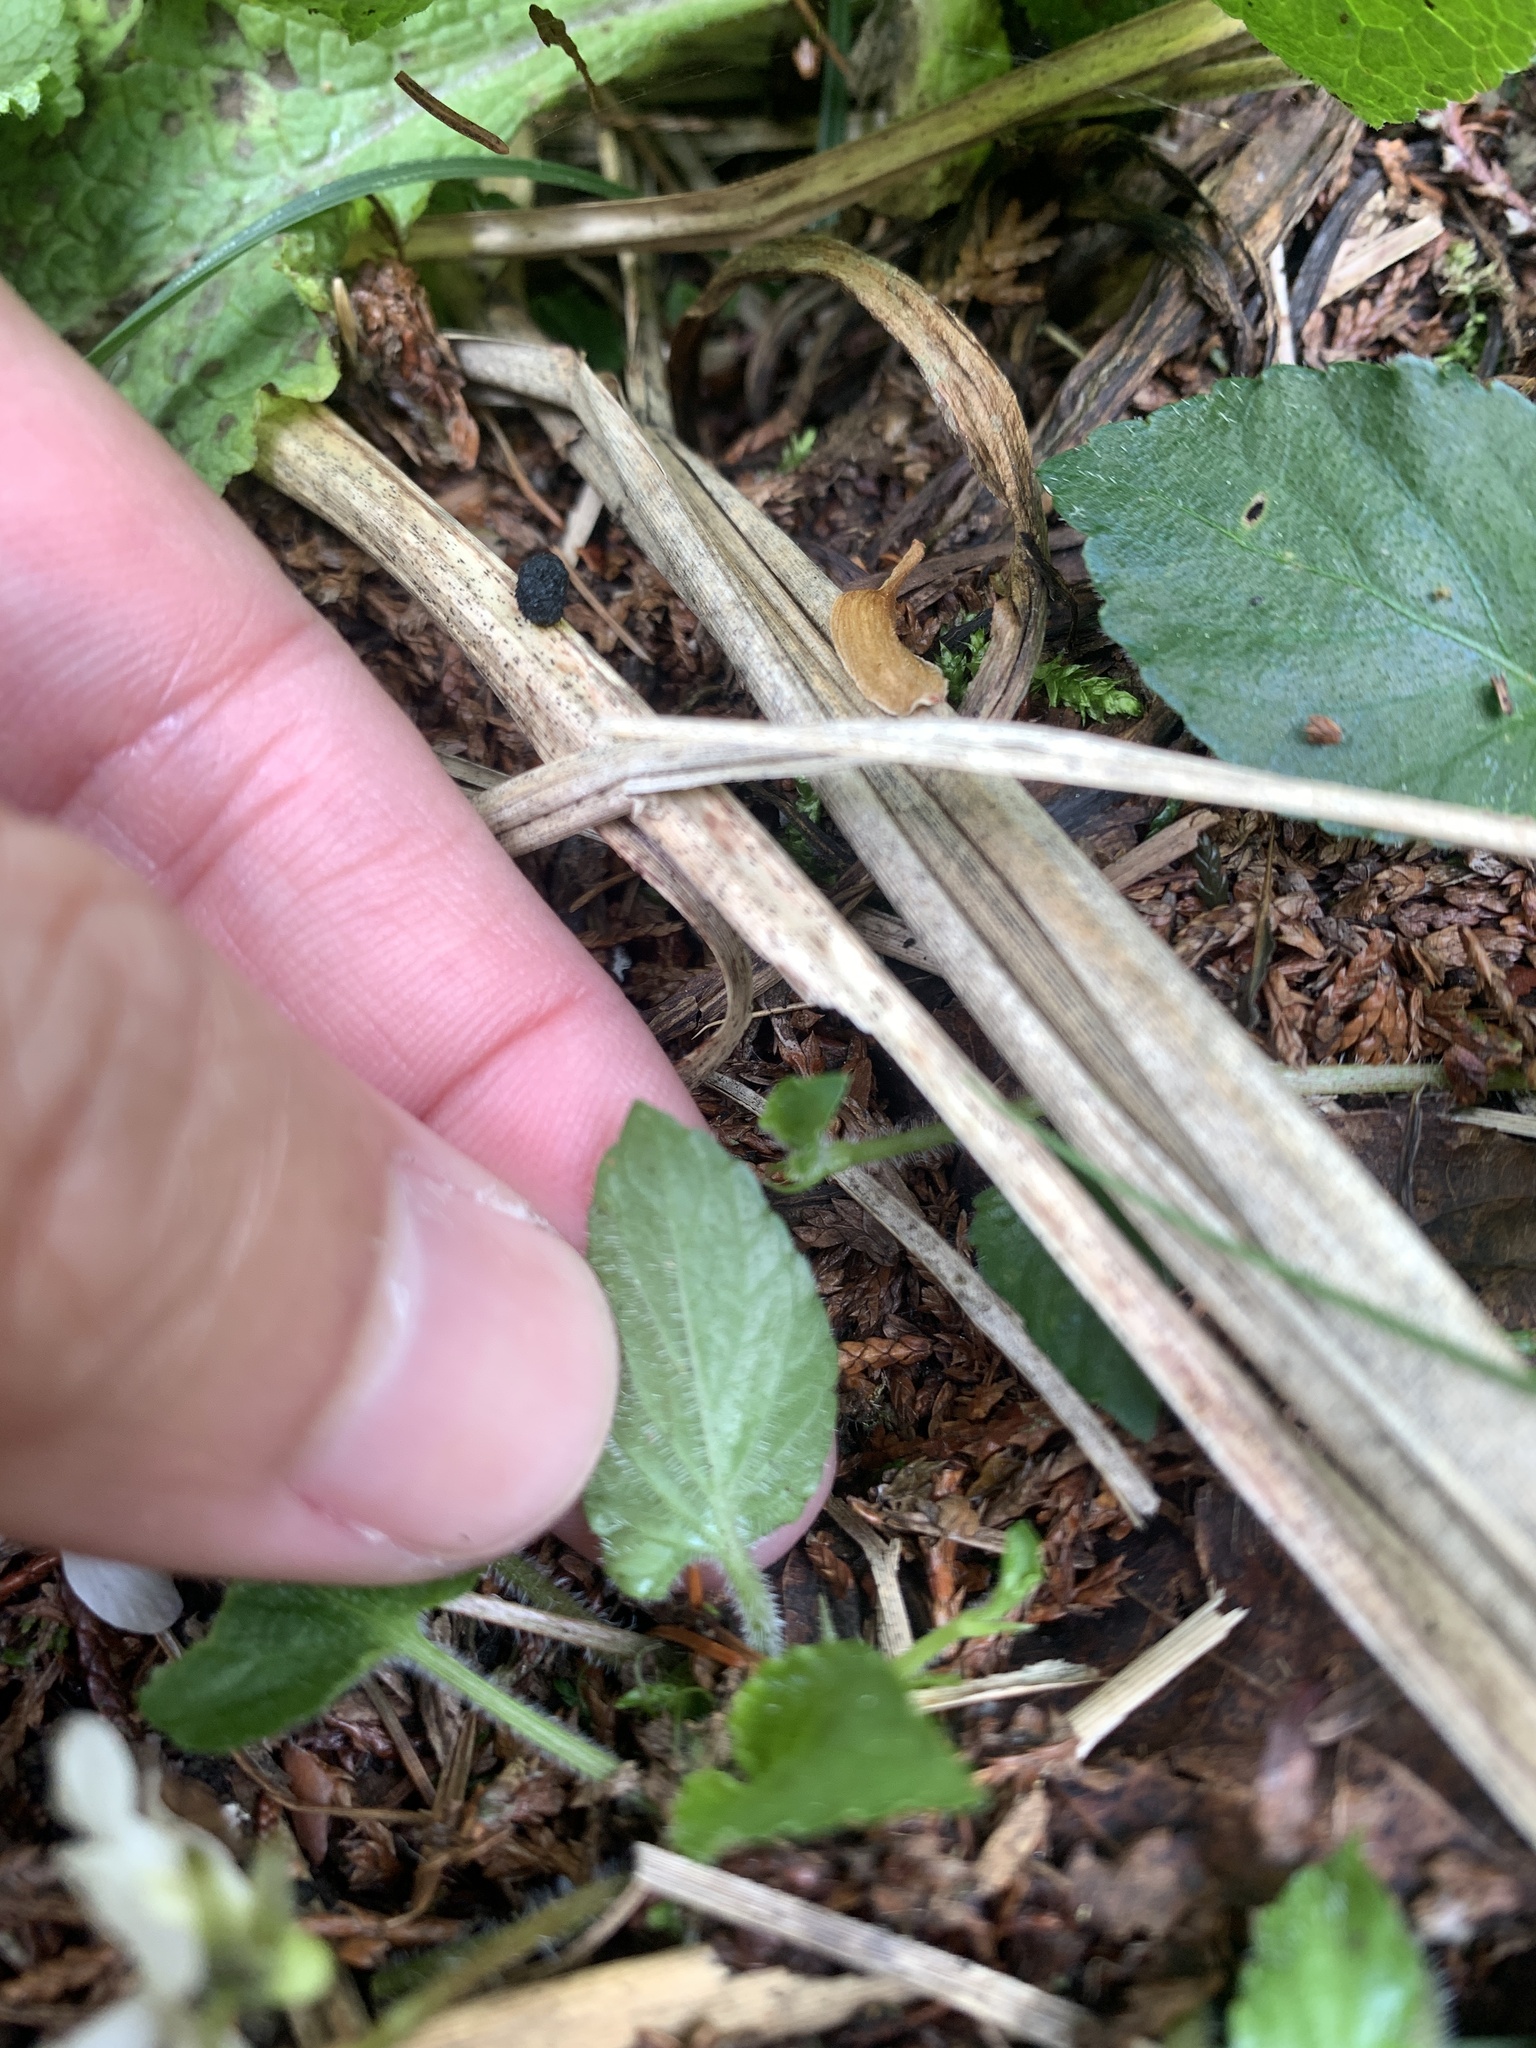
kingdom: Plantae
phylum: Tracheophyta
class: Magnoliopsida
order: Malpighiales
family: Violaceae
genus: Viola
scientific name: Viola adenothrix
